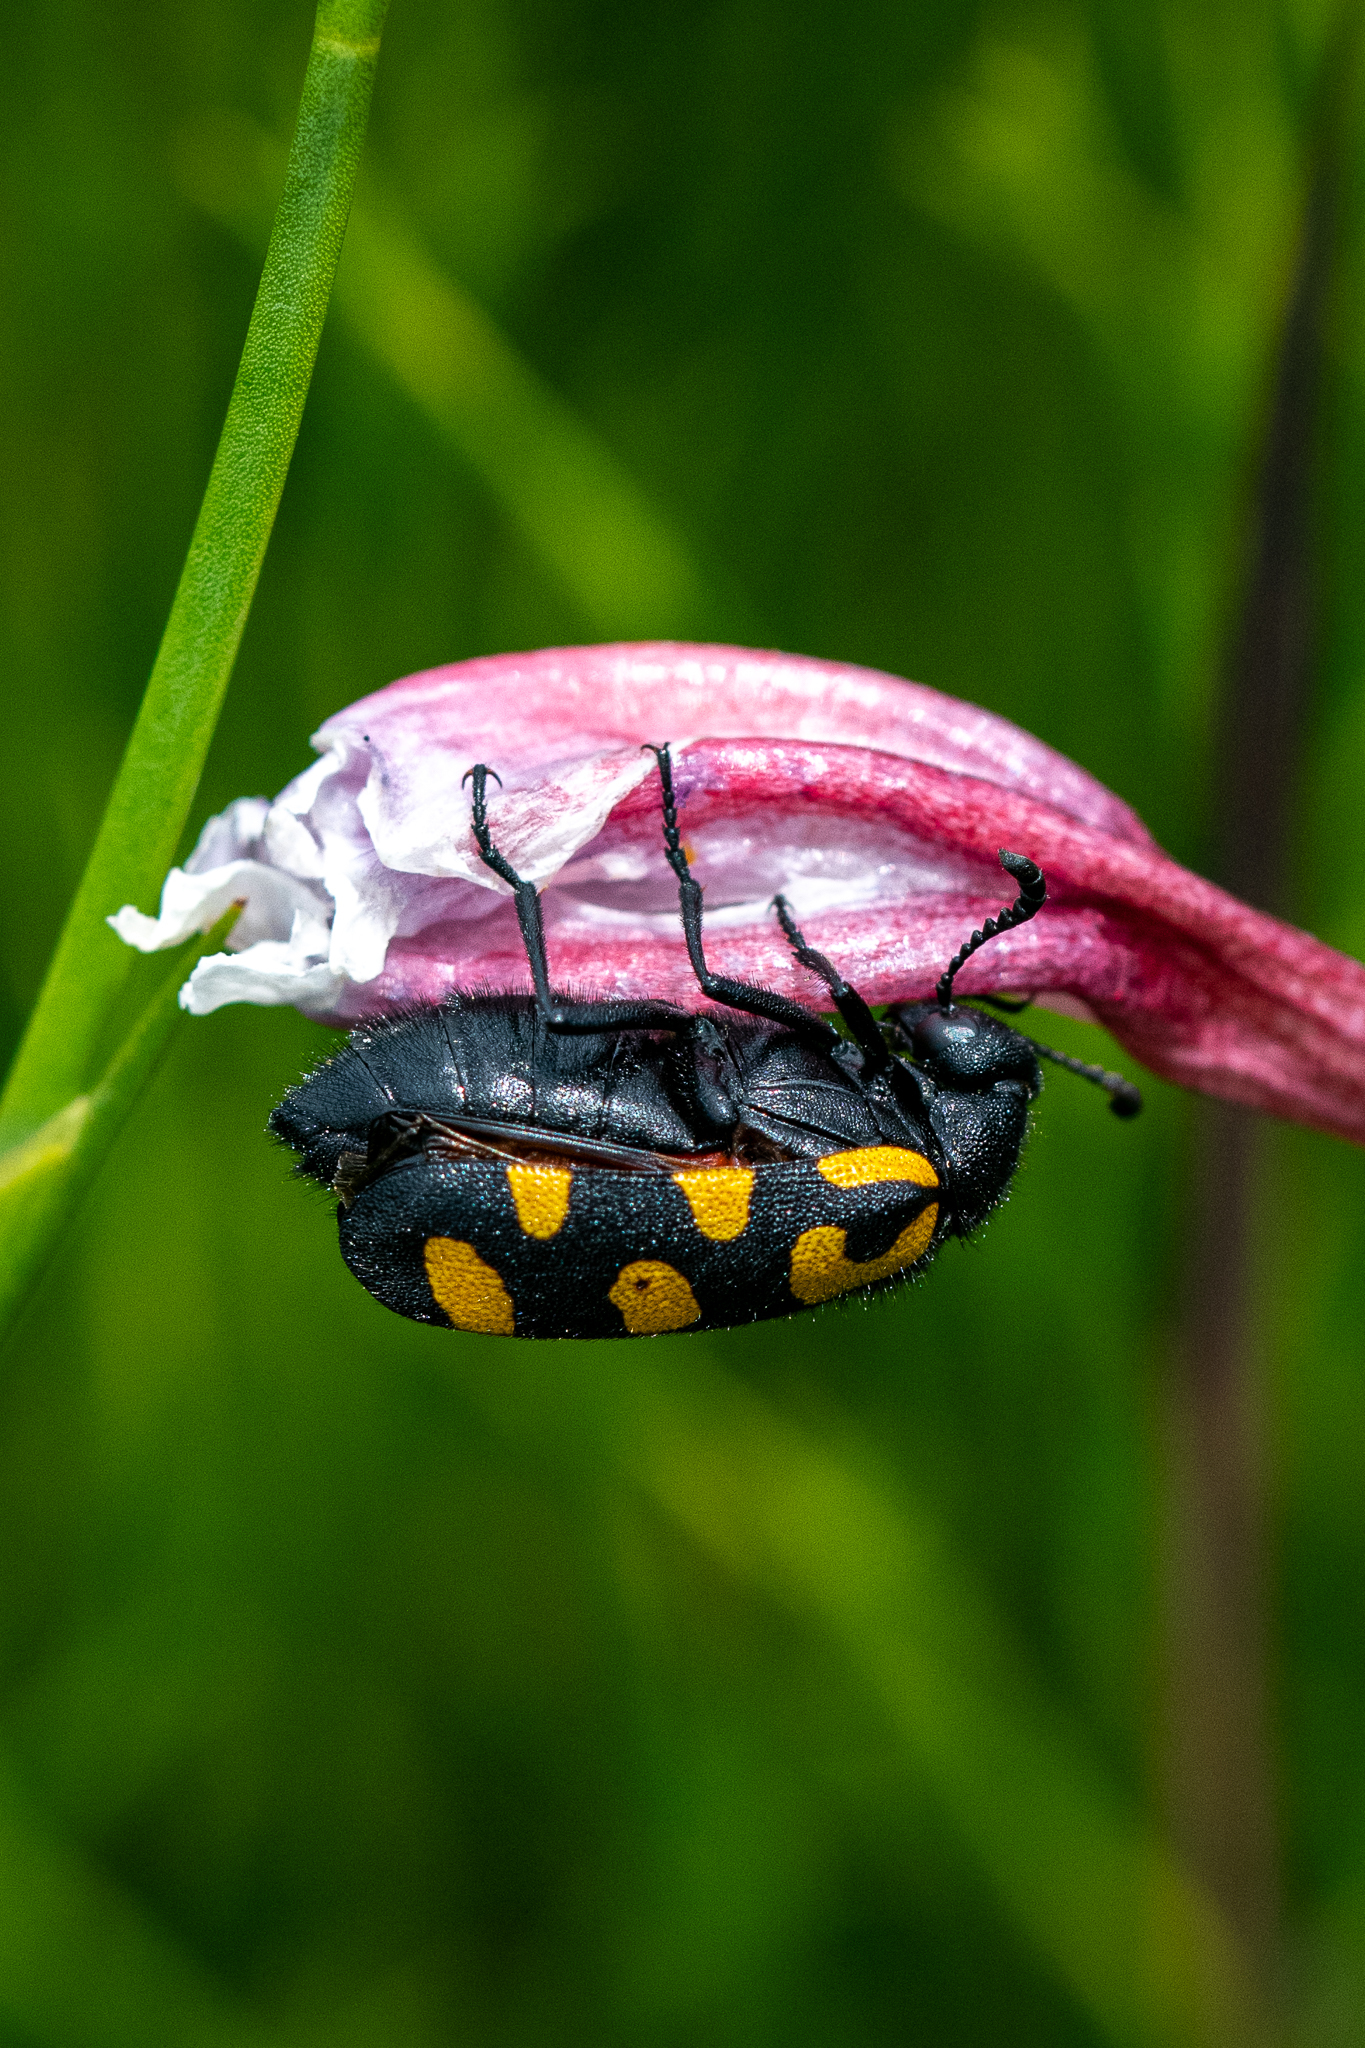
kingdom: Animalia
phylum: Arthropoda
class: Insecta
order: Coleoptera
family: Meloidae
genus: Ceroctis
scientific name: Ceroctis capensis
